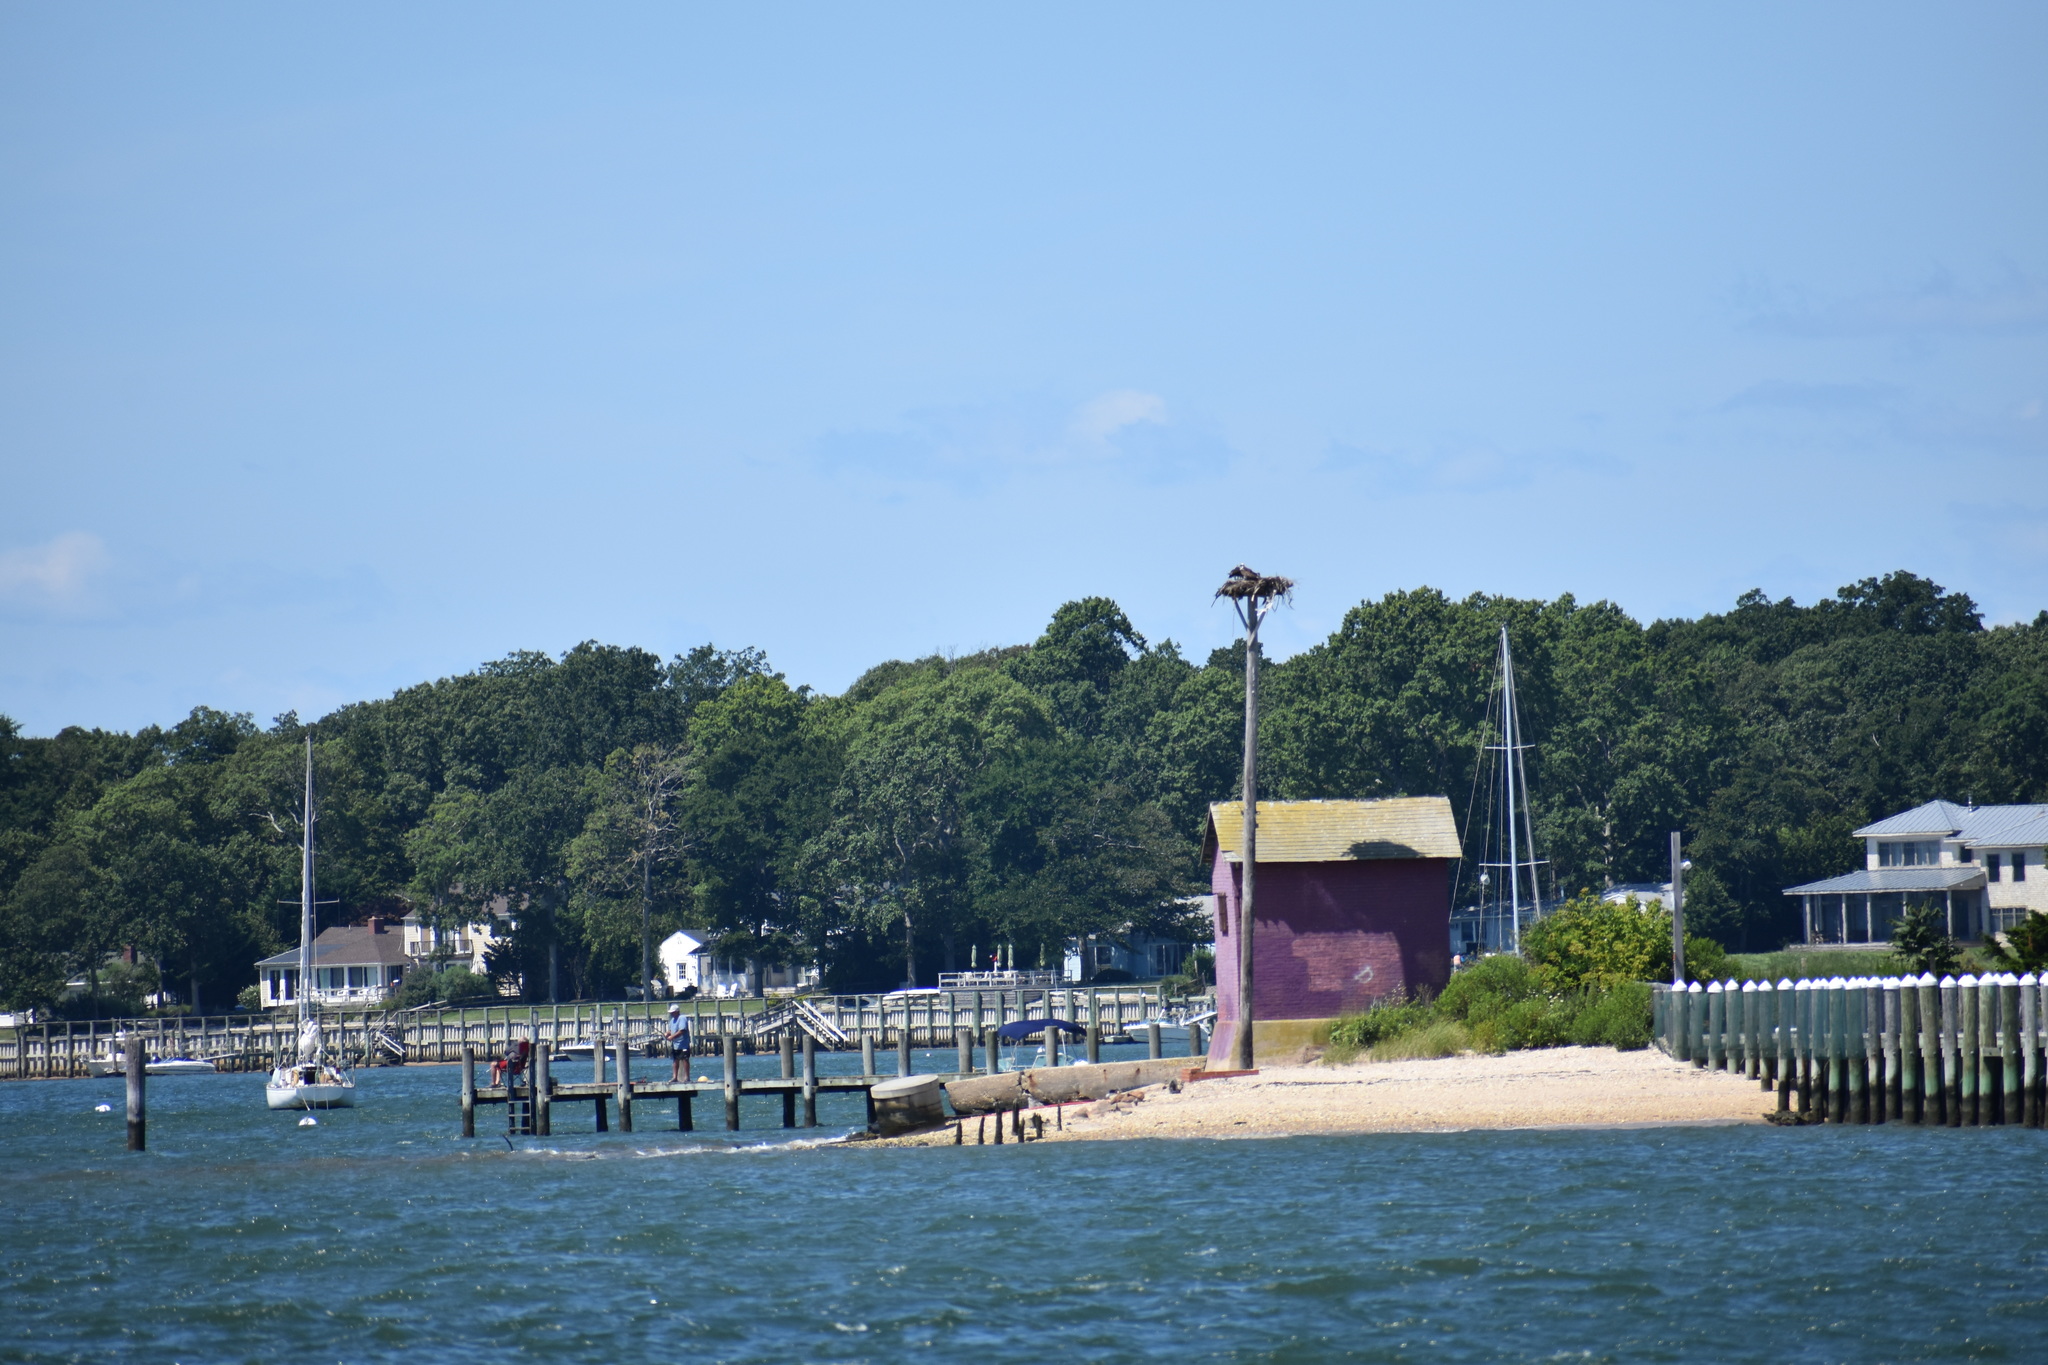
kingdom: Animalia
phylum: Chordata
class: Aves
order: Accipitriformes
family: Pandionidae
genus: Pandion
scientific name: Pandion haliaetus
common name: Osprey
